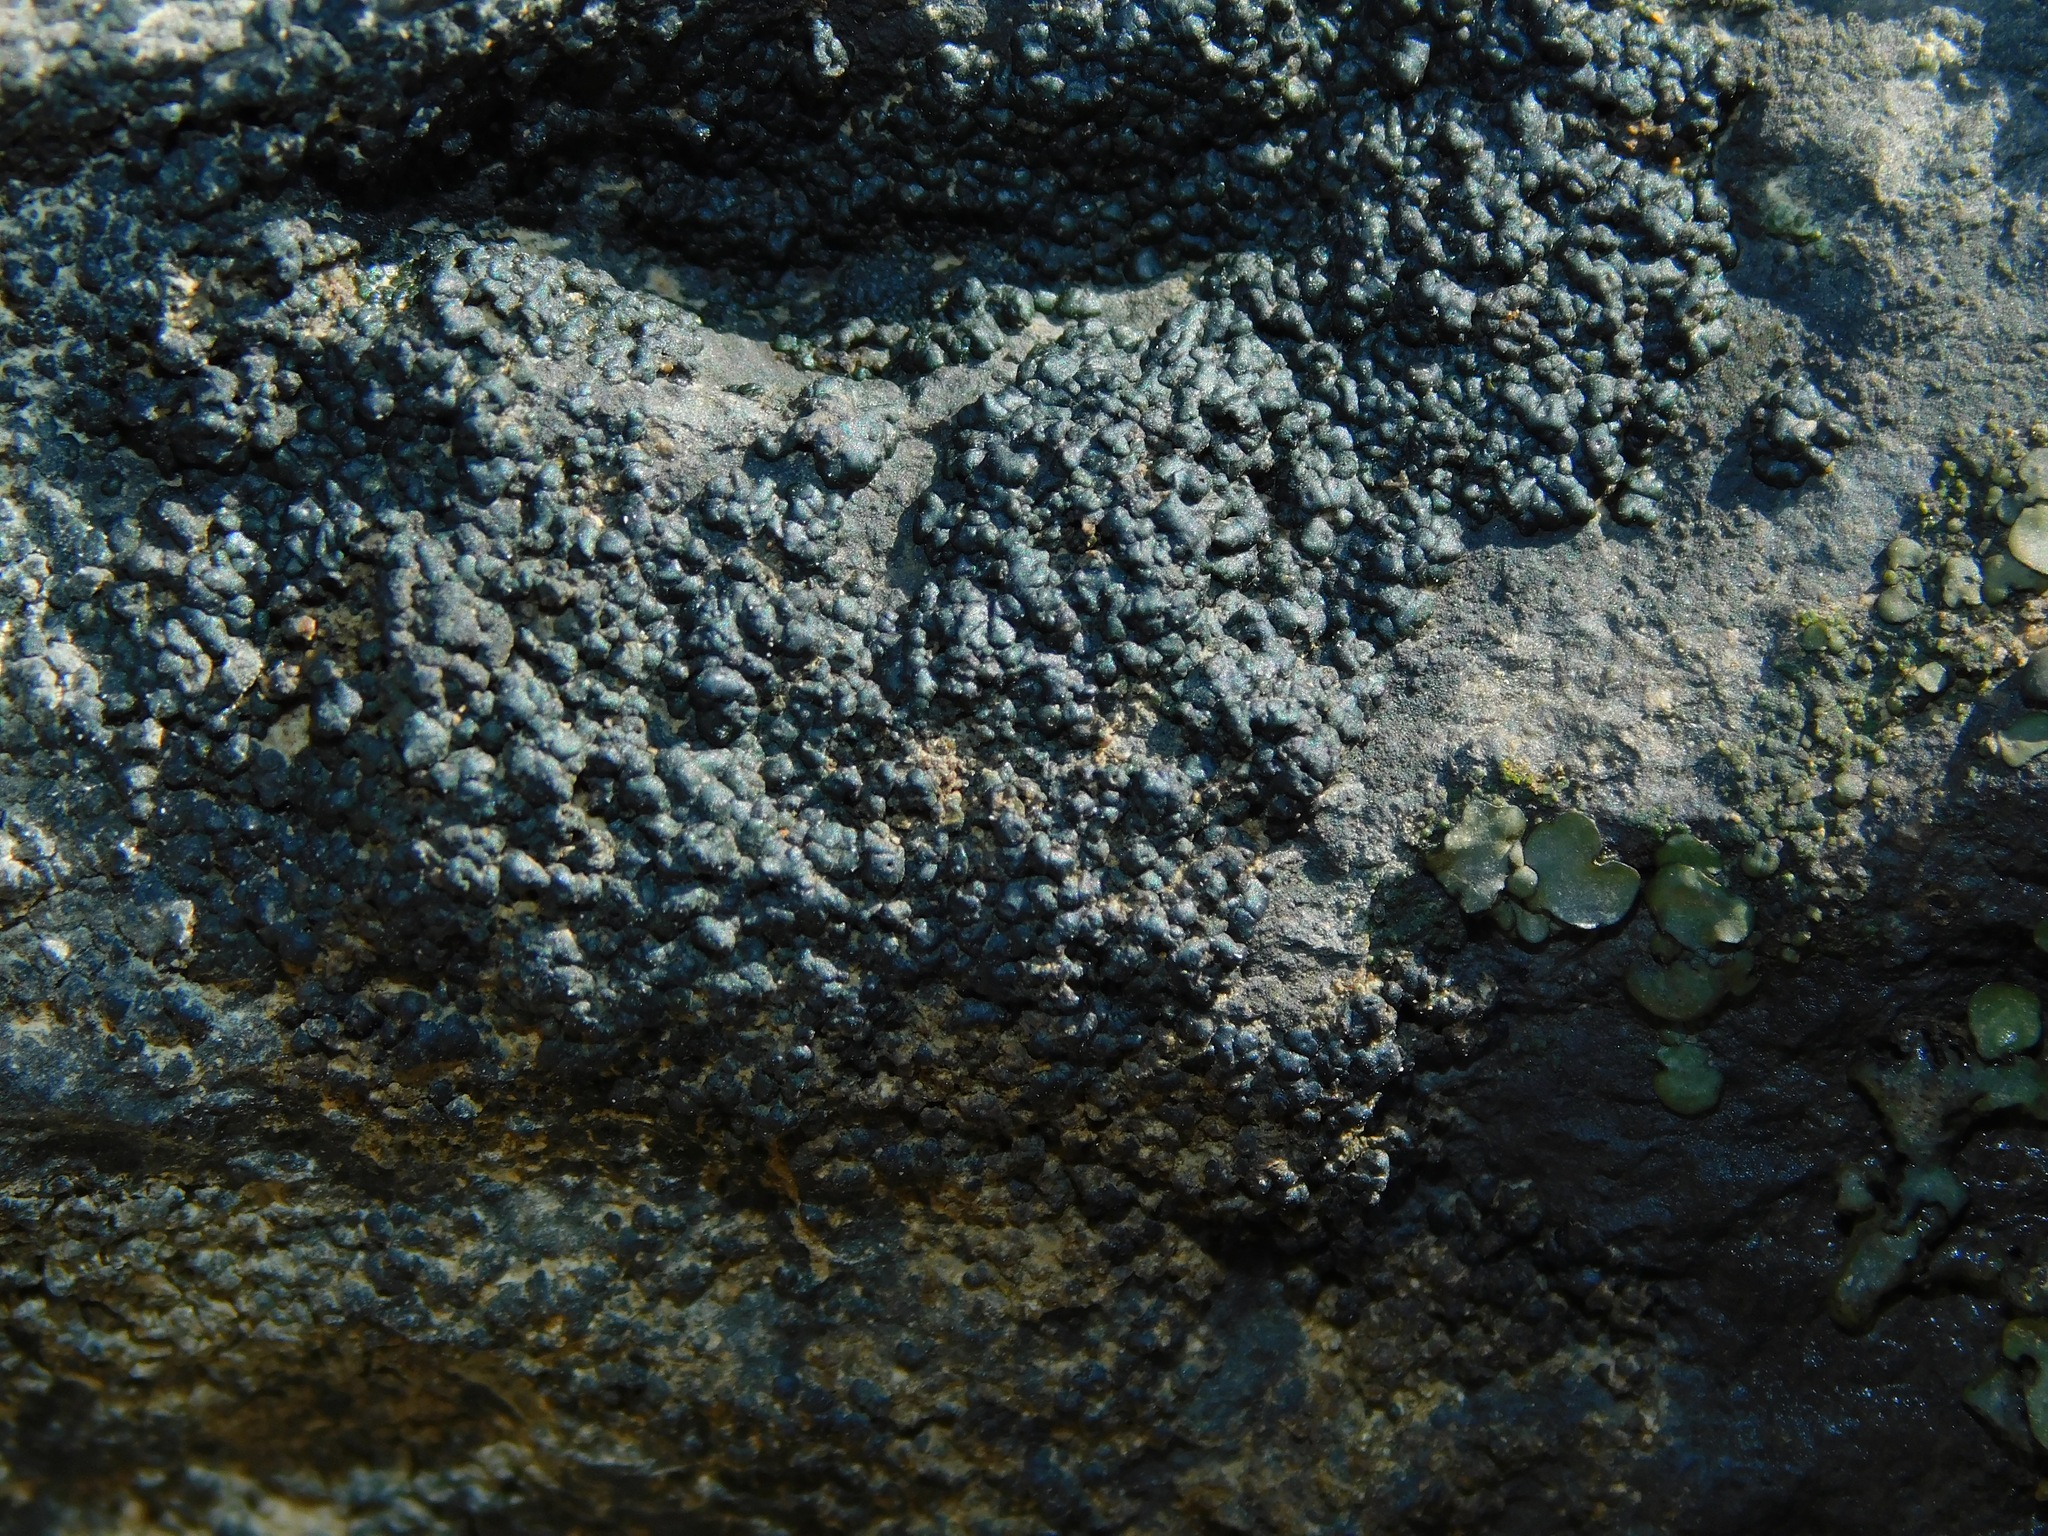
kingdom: Fungi
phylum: Ascomycota
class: Eurotiomycetes
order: Verrucariales
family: Verrucariaceae
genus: Verrucaria
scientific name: Verrucaria lobata
